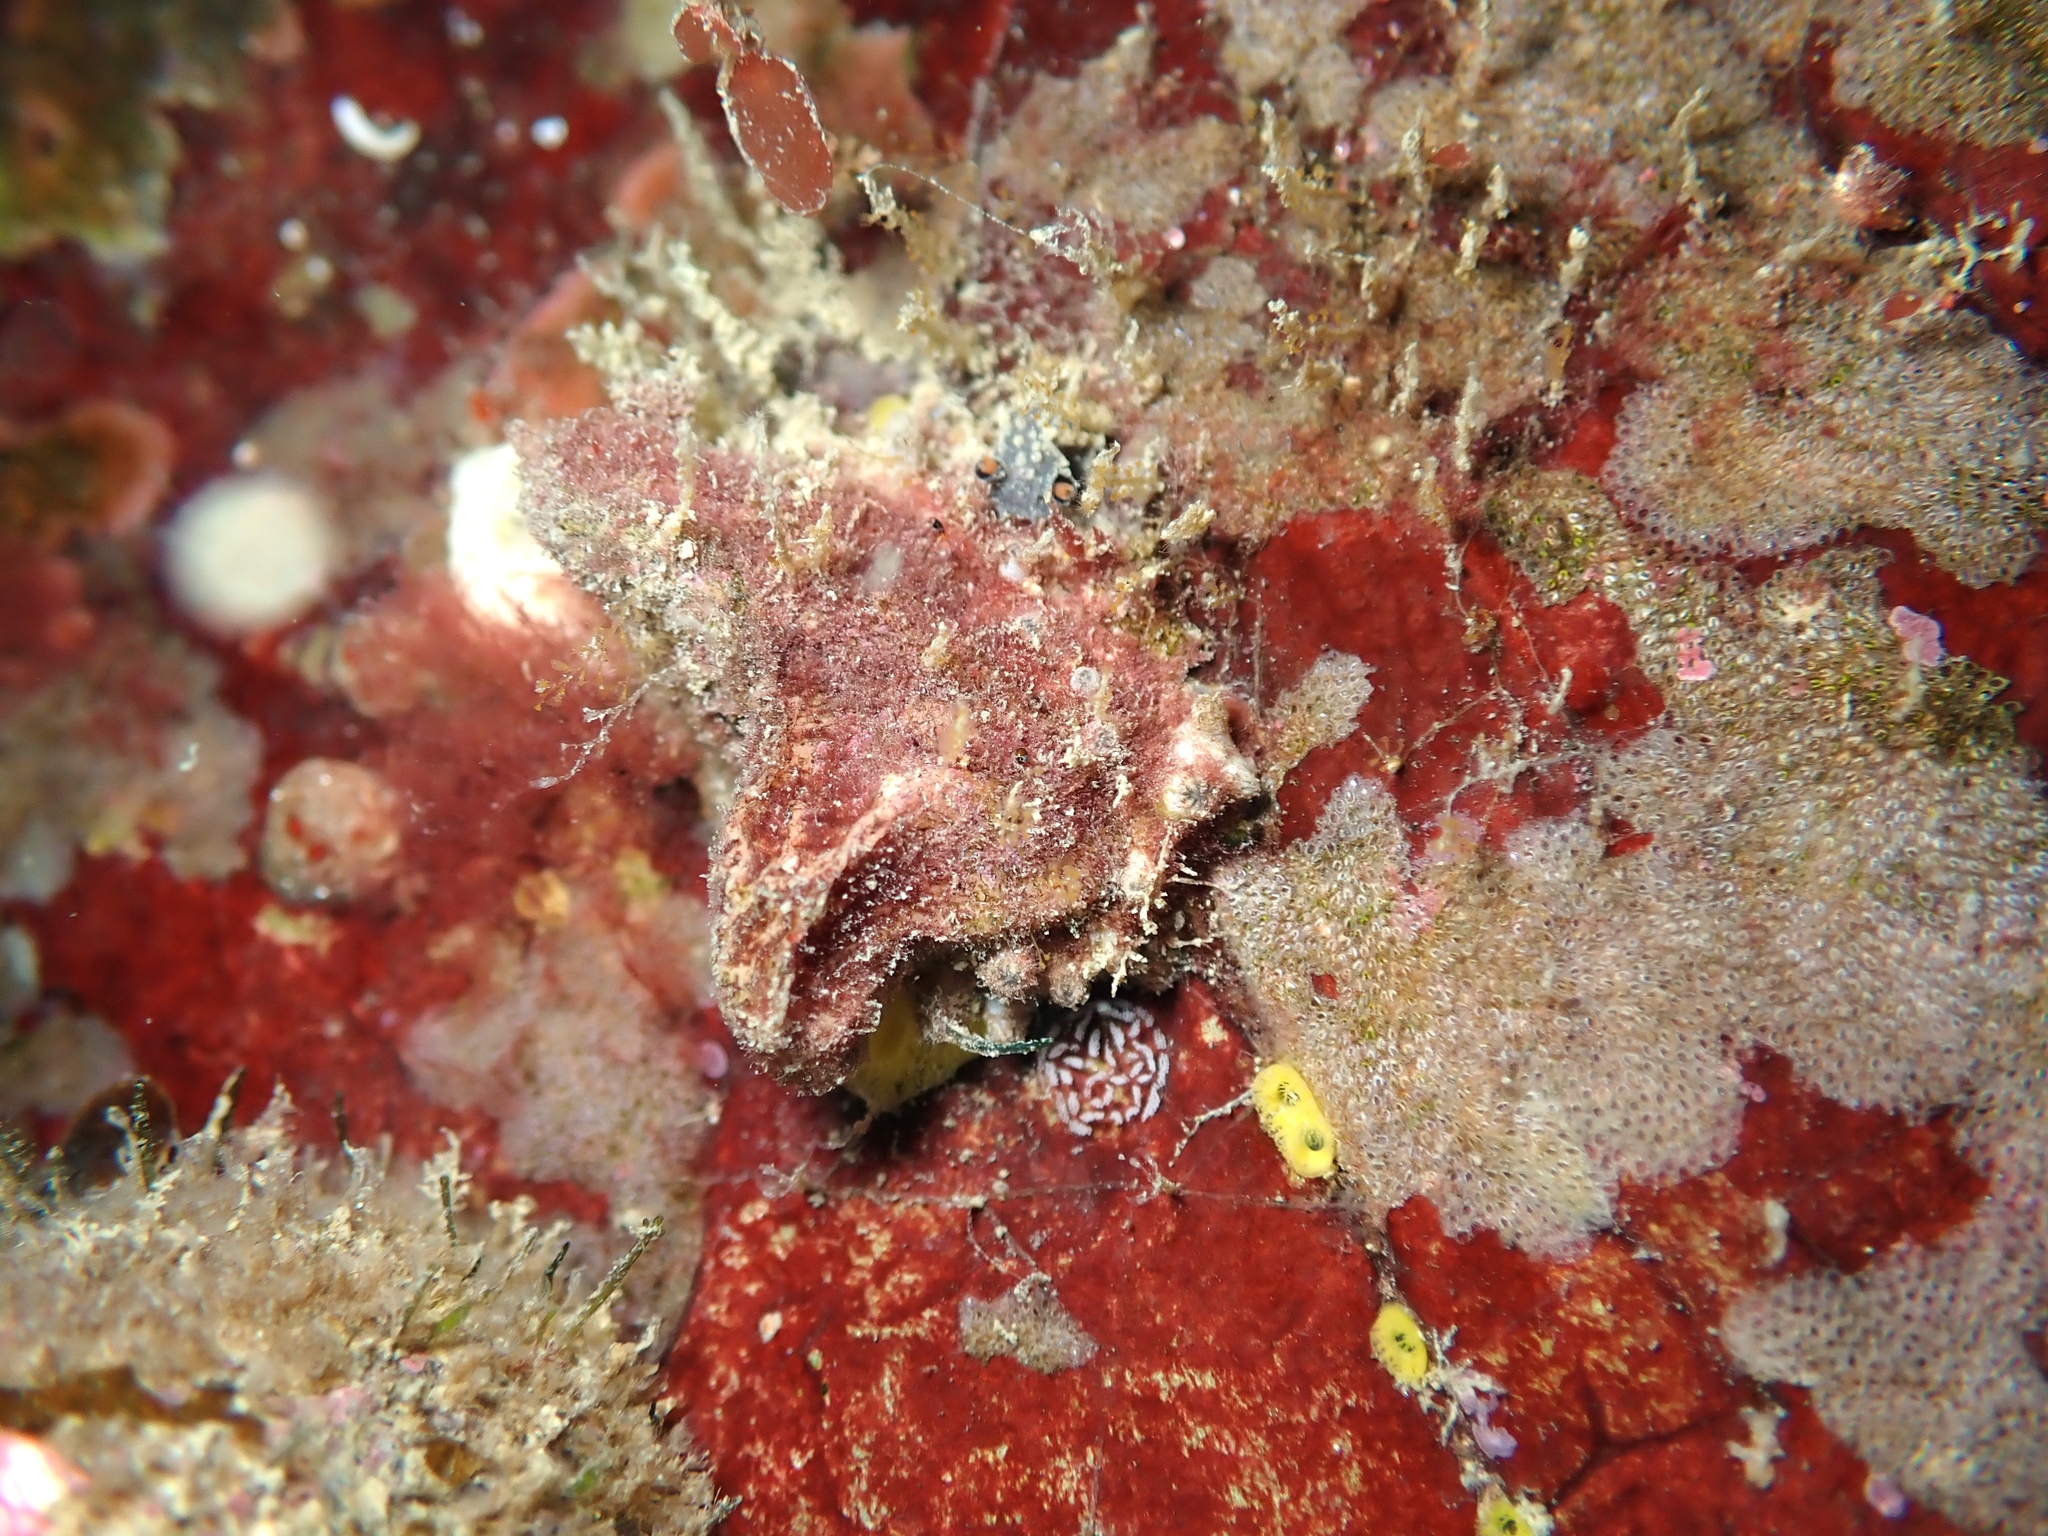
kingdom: Animalia
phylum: Mollusca
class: Gastropoda
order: Nudibranchia
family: Tritoniidae
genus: Tritonia
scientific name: Tritonia flemingi
